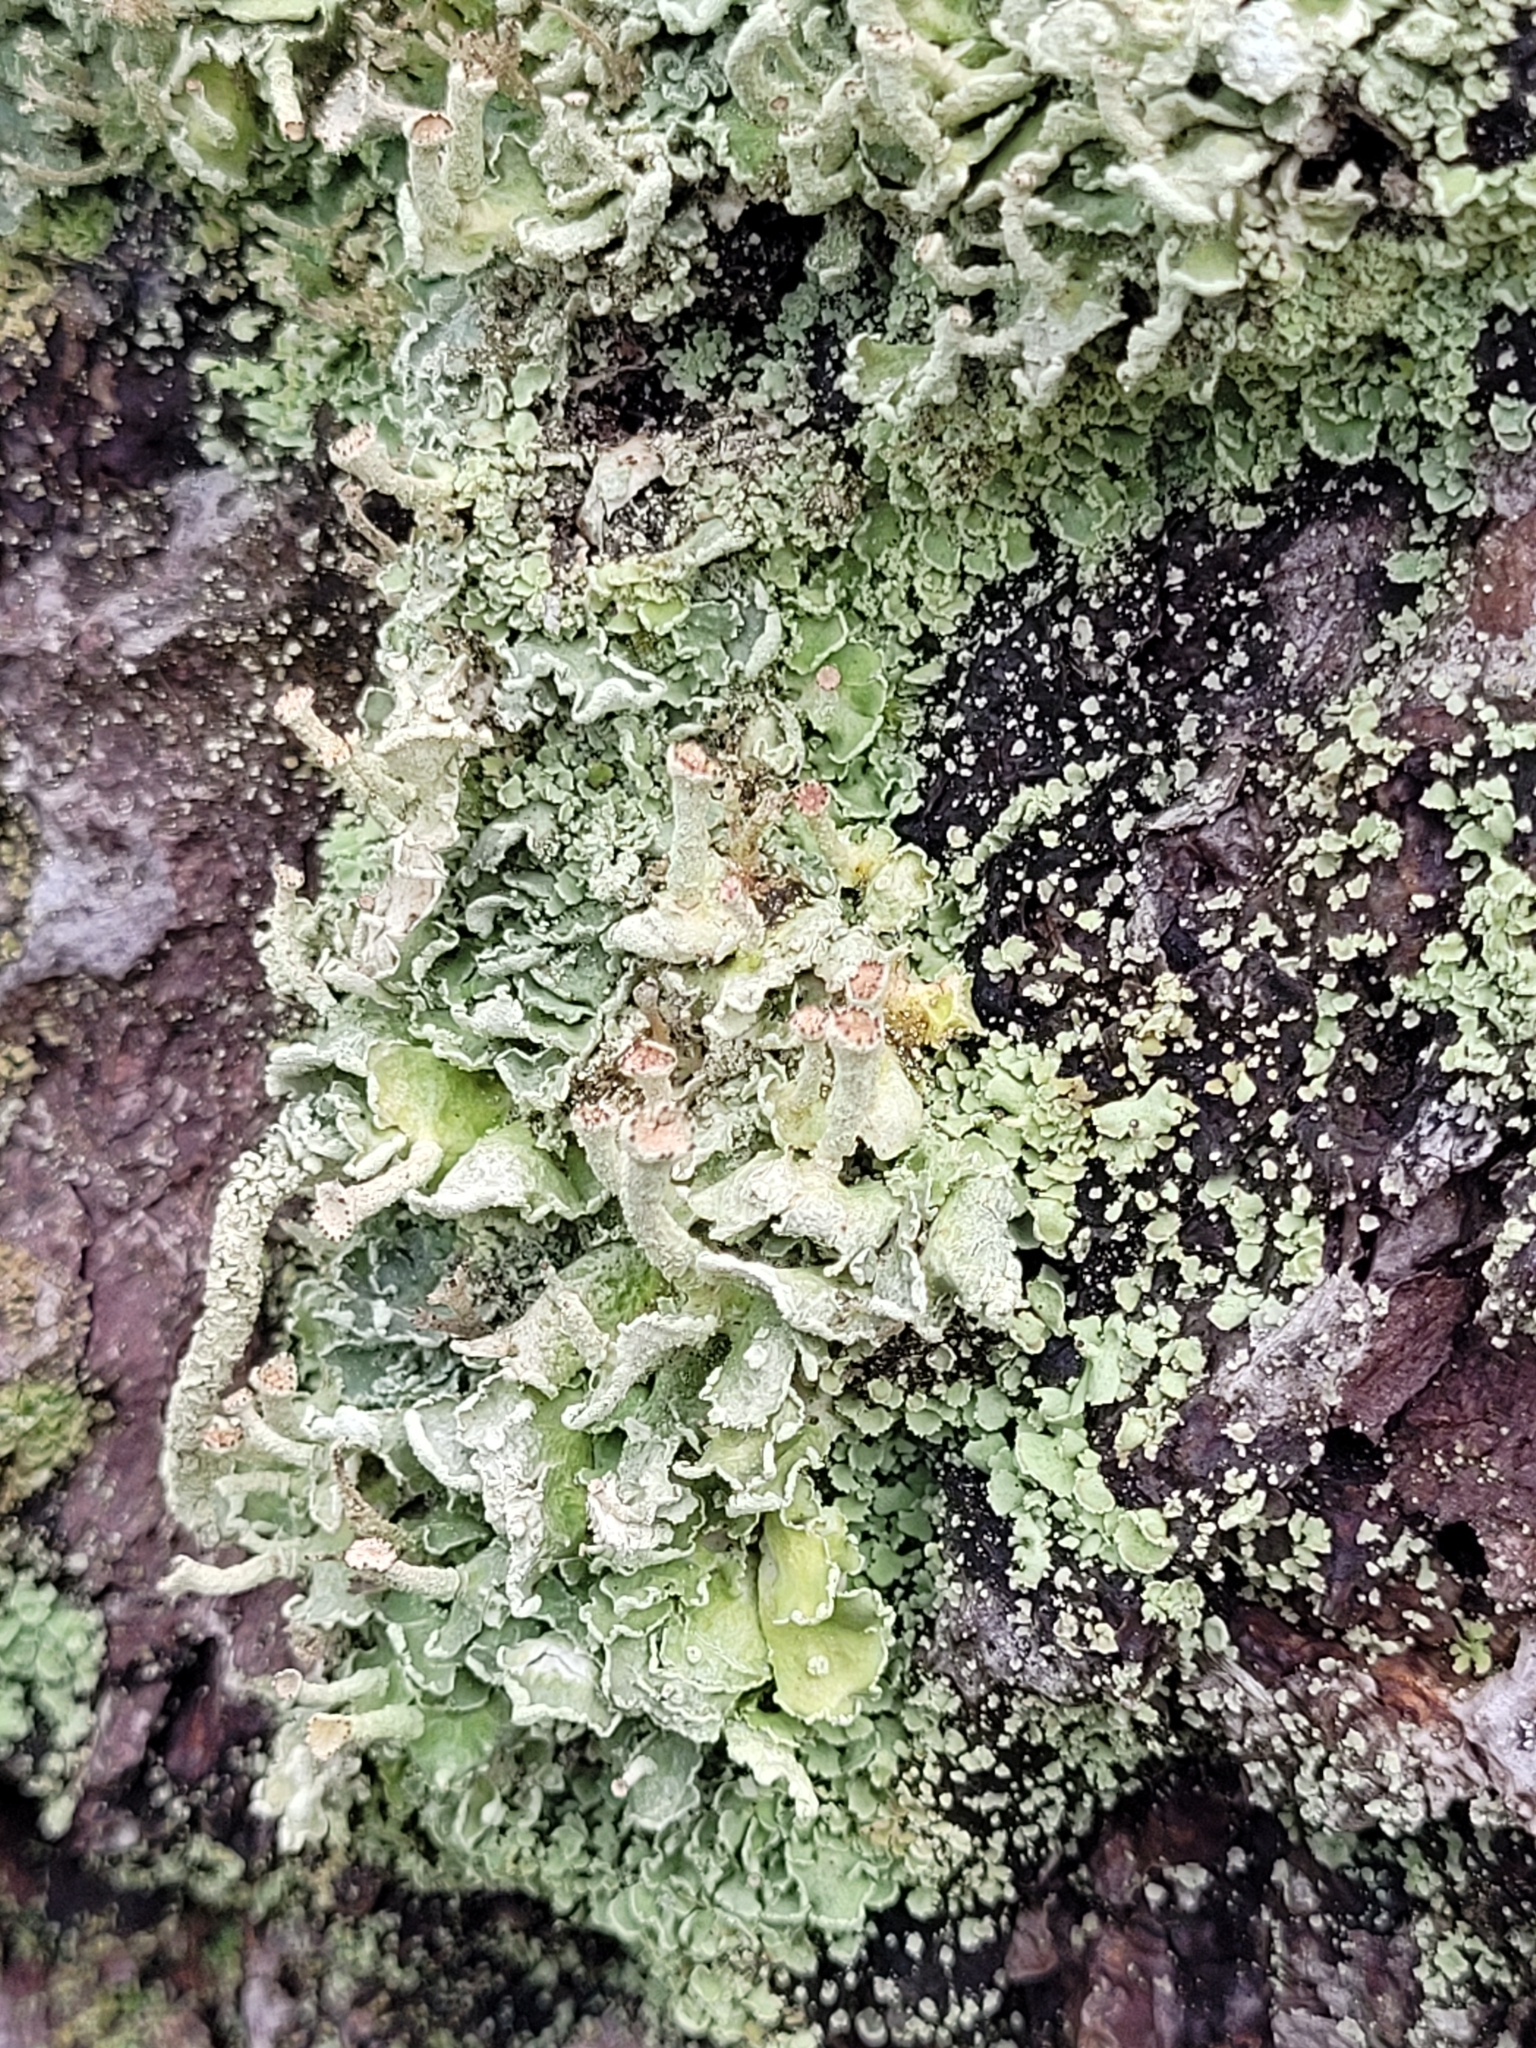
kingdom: Fungi
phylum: Ascomycota
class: Lecanoromycetes
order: Lecanorales
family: Cladoniaceae
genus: Cladonia
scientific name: Cladonia digitata
